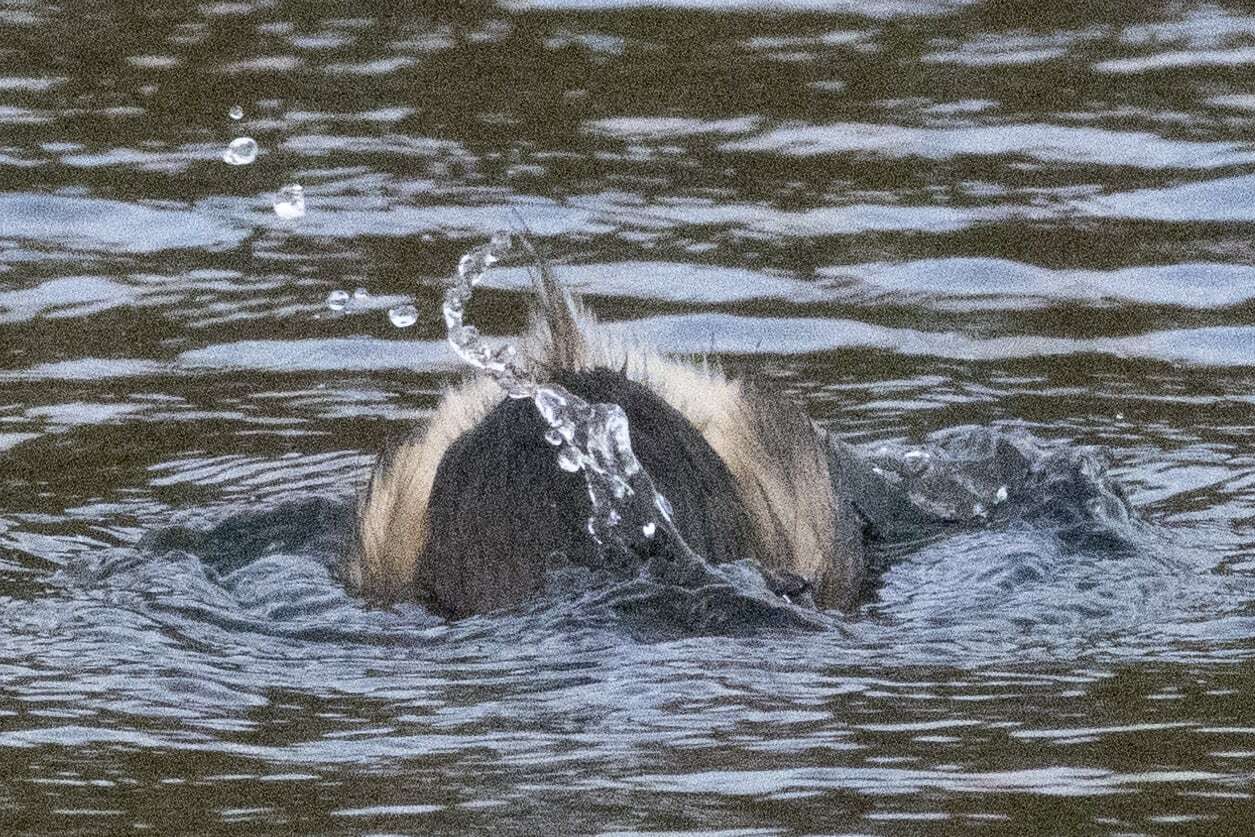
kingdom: Animalia
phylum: Chordata
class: Aves
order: Podicipediformes
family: Podicipedidae
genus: Tachybaptus
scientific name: Tachybaptus ruficollis
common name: Little grebe
